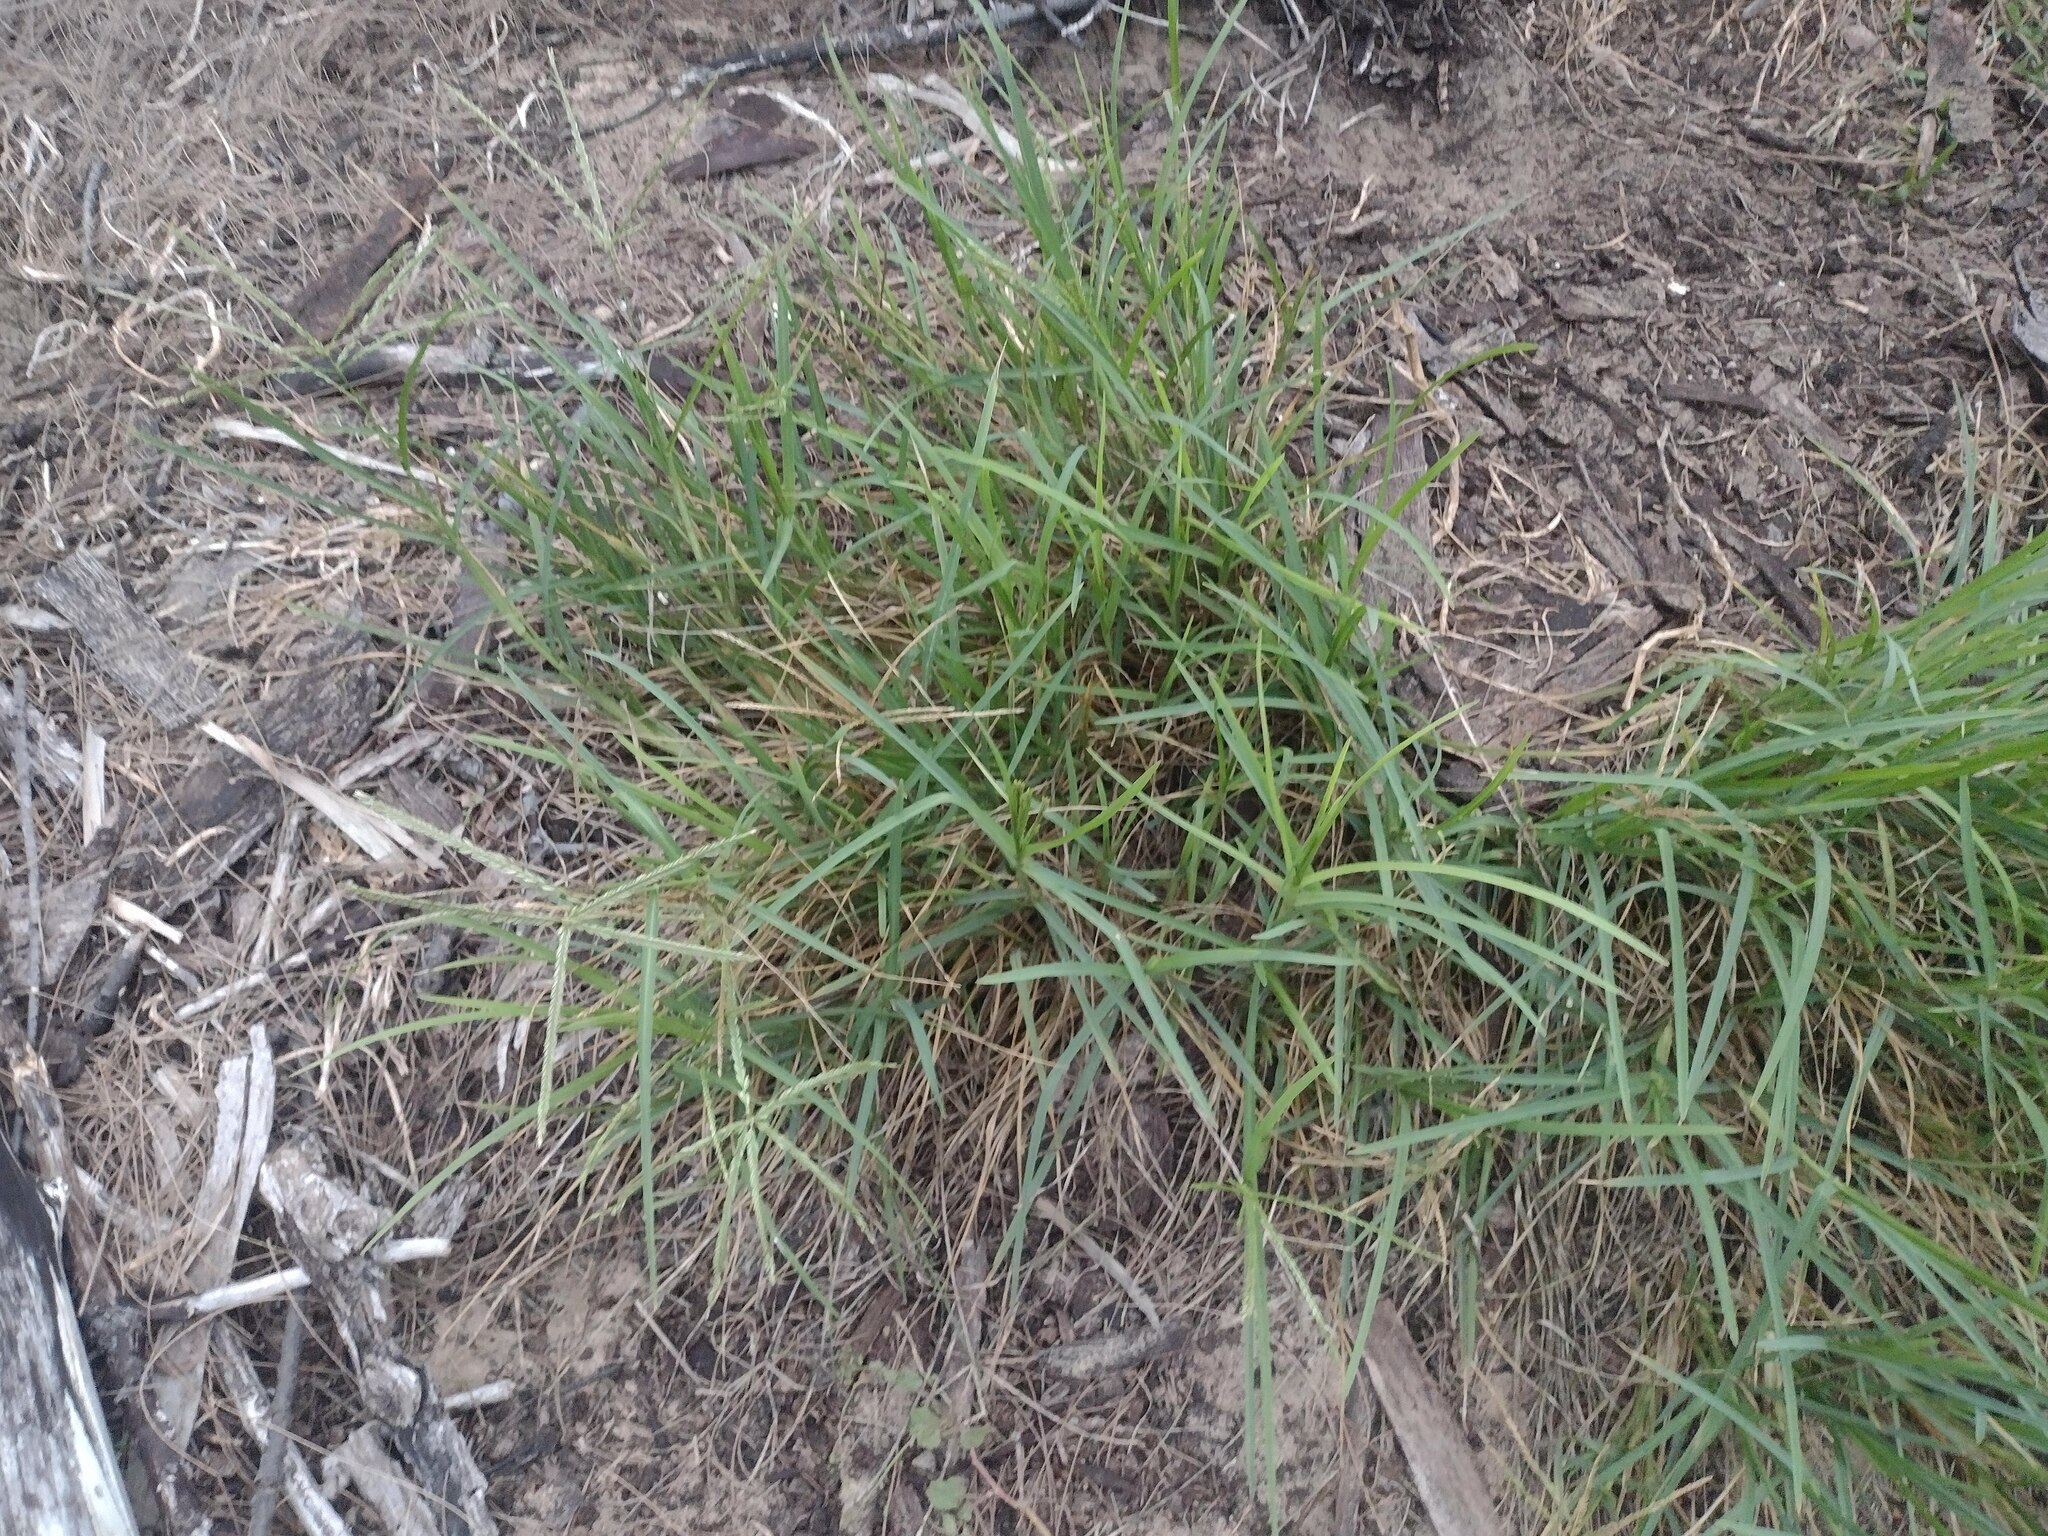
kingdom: Plantae
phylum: Tracheophyta
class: Liliopsida
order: Poales
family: Poaceae
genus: Eleusine
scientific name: Eleusine indica
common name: Yard-grass
